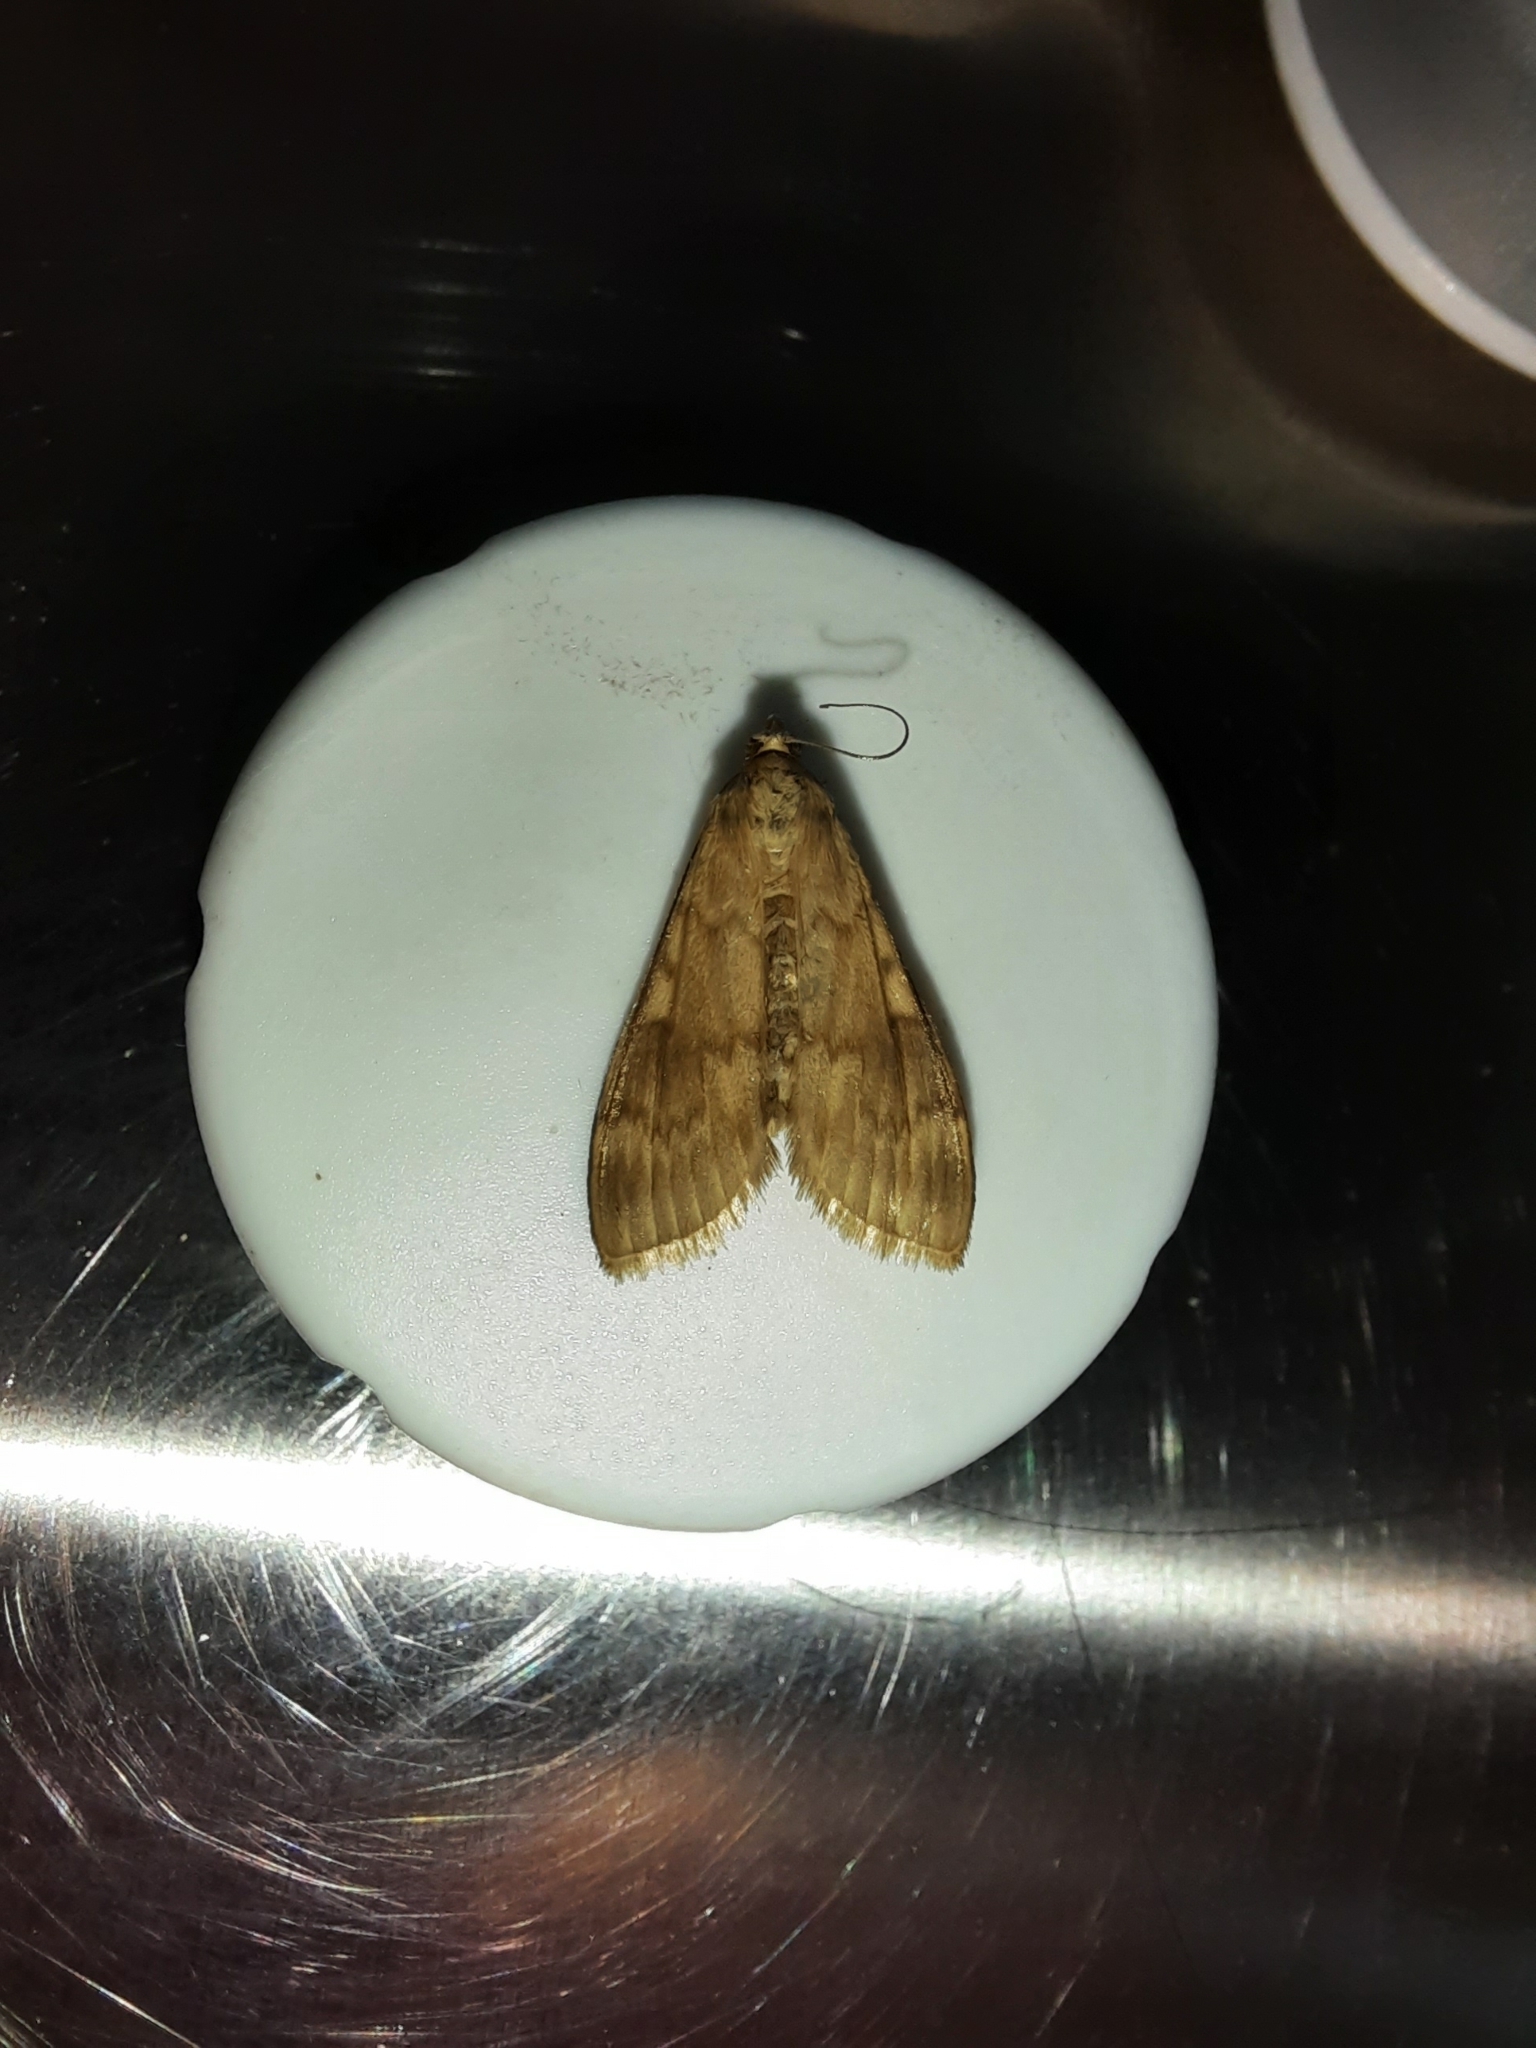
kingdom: Animalia
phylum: Arthropoda
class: Insecta
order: Lepidoptera
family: Crambidae
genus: Ostrinia
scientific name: Ostrinia nubilalis
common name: European corn borer
